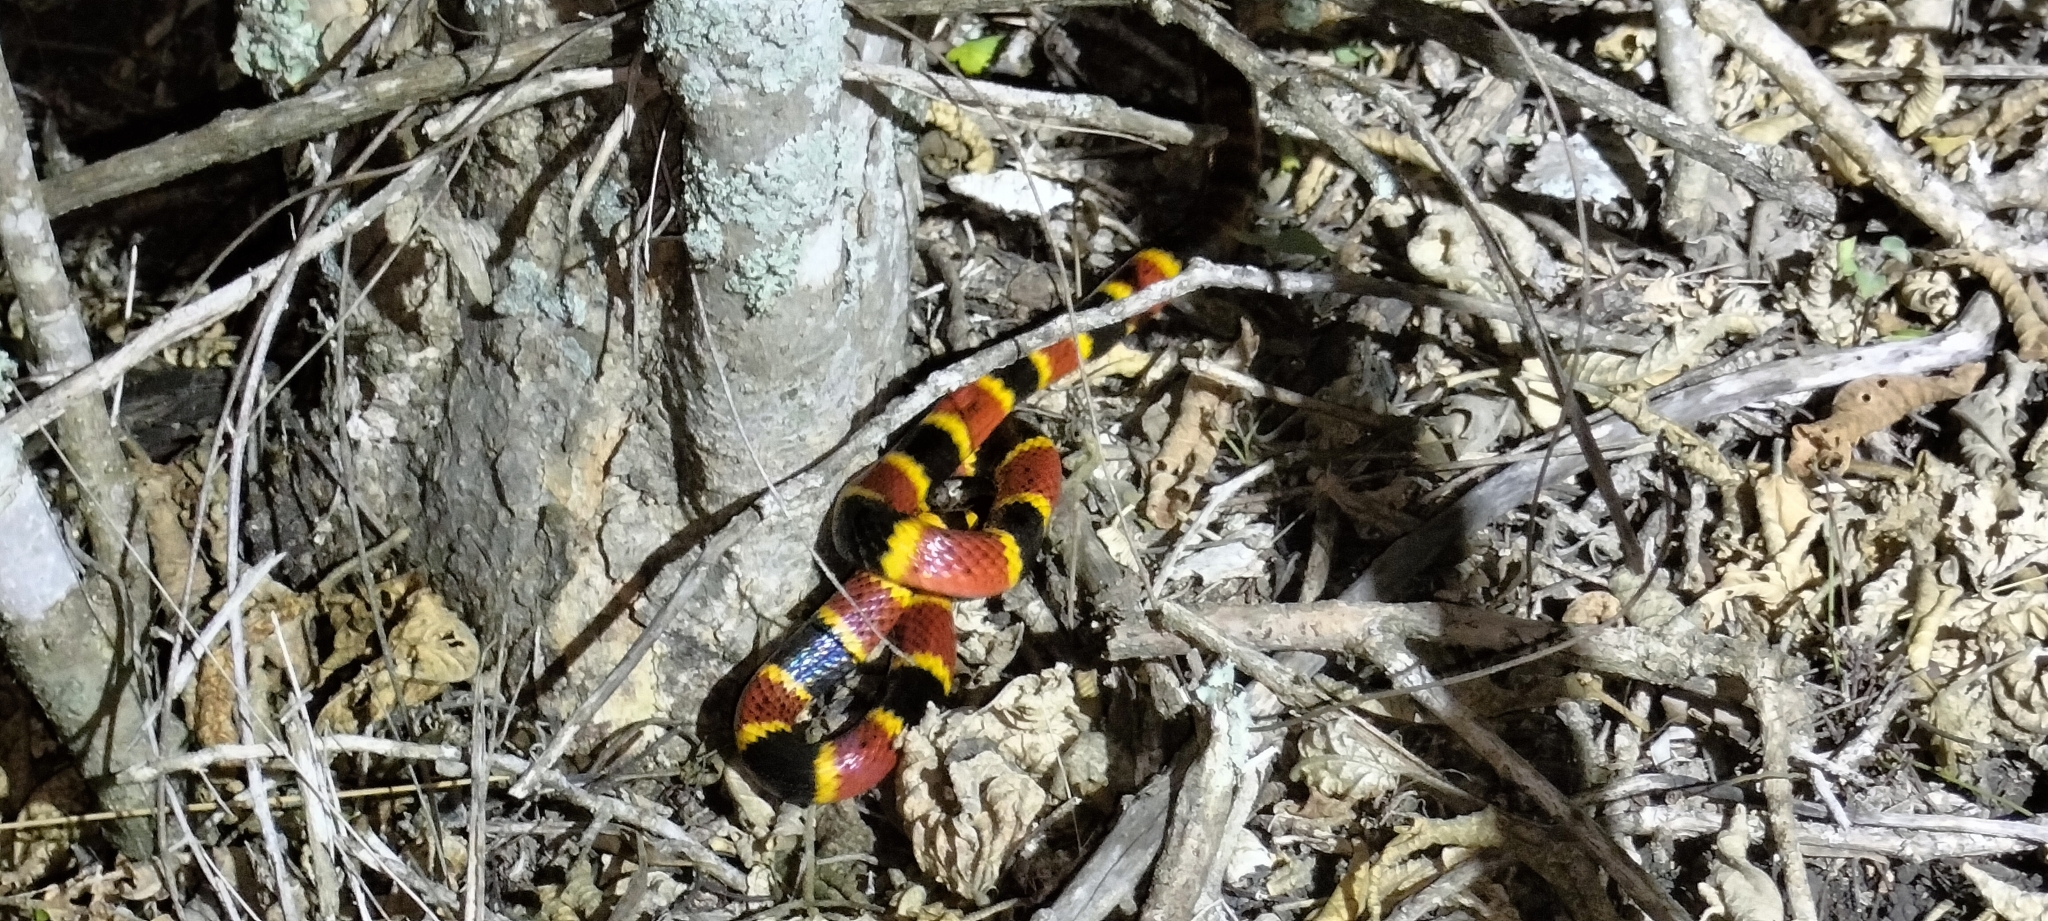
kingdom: Animalia
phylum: Chordata
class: Squamata
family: Elapidae
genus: Micrurus
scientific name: Micrurus tener
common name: Texas coral snake
